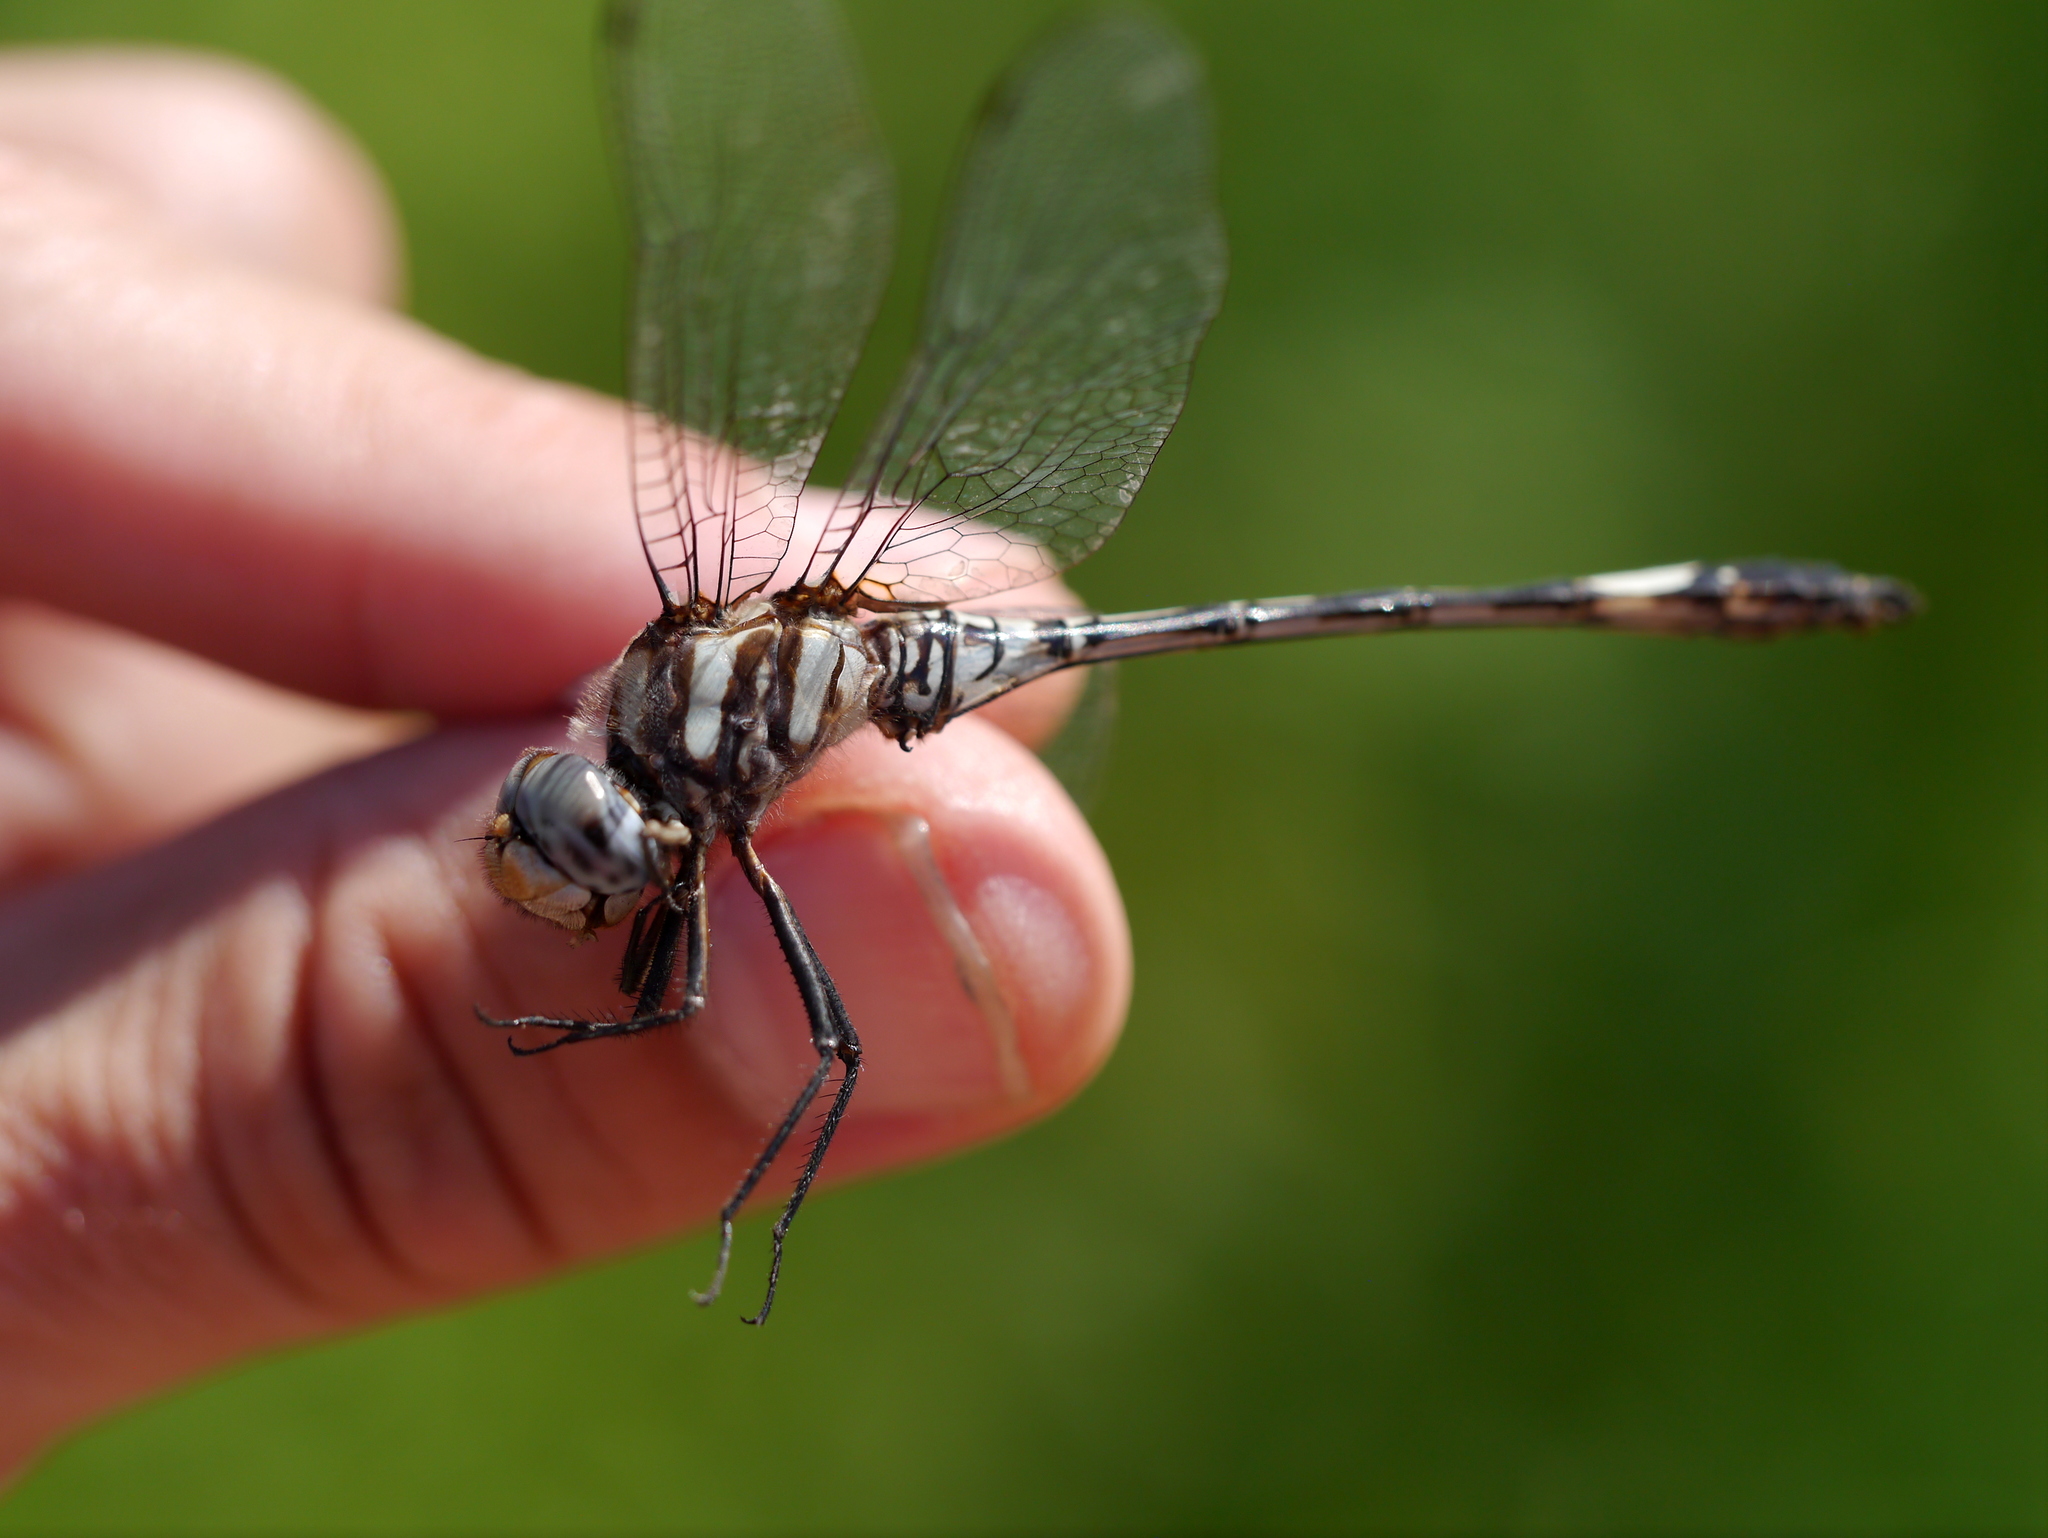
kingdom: Animalia
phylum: Arthropoda
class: Insecta
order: Odonata
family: Libellulidae
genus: Brechmorhoga
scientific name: Brechmorhoga mendax
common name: Pale-faced clubskimmer
